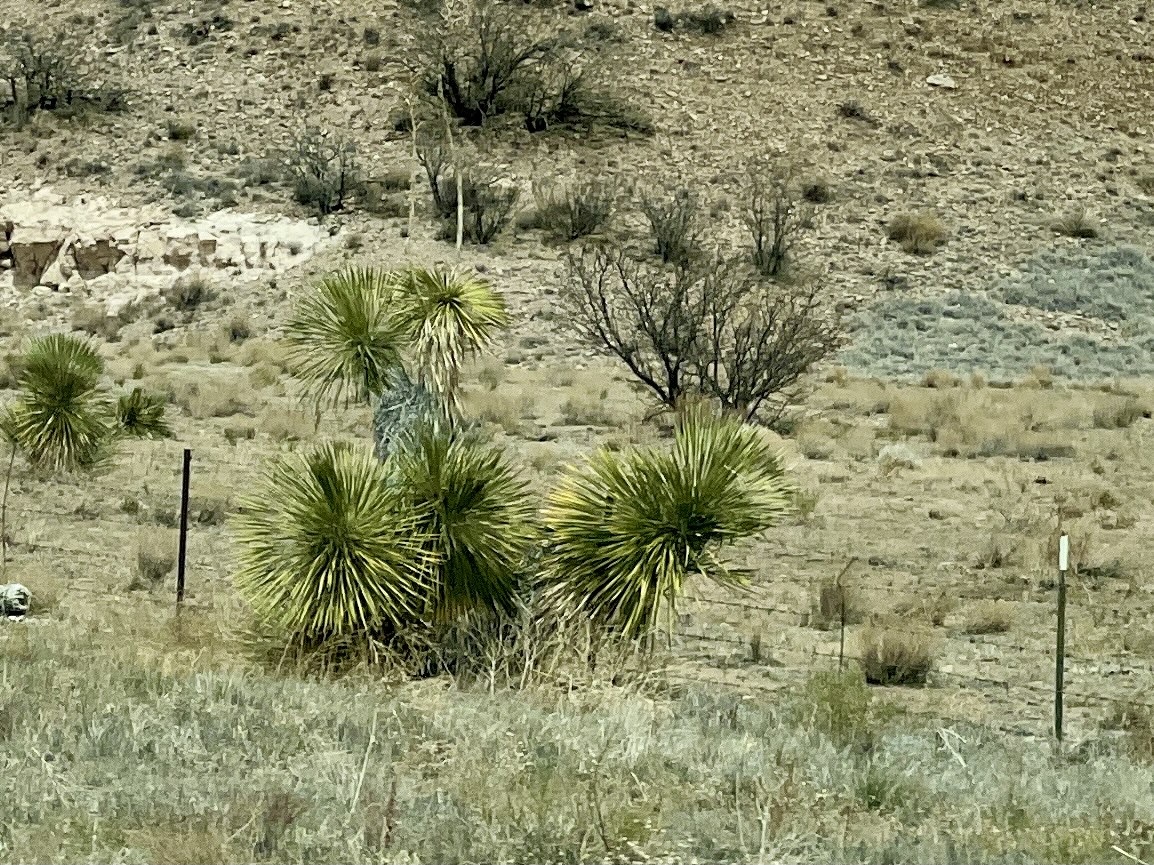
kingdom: Plantae
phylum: Tracheophyta
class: Liliopsida
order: Asparagales
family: Asparagaceae
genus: Yucca
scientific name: Yucca elata
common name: Palmella
